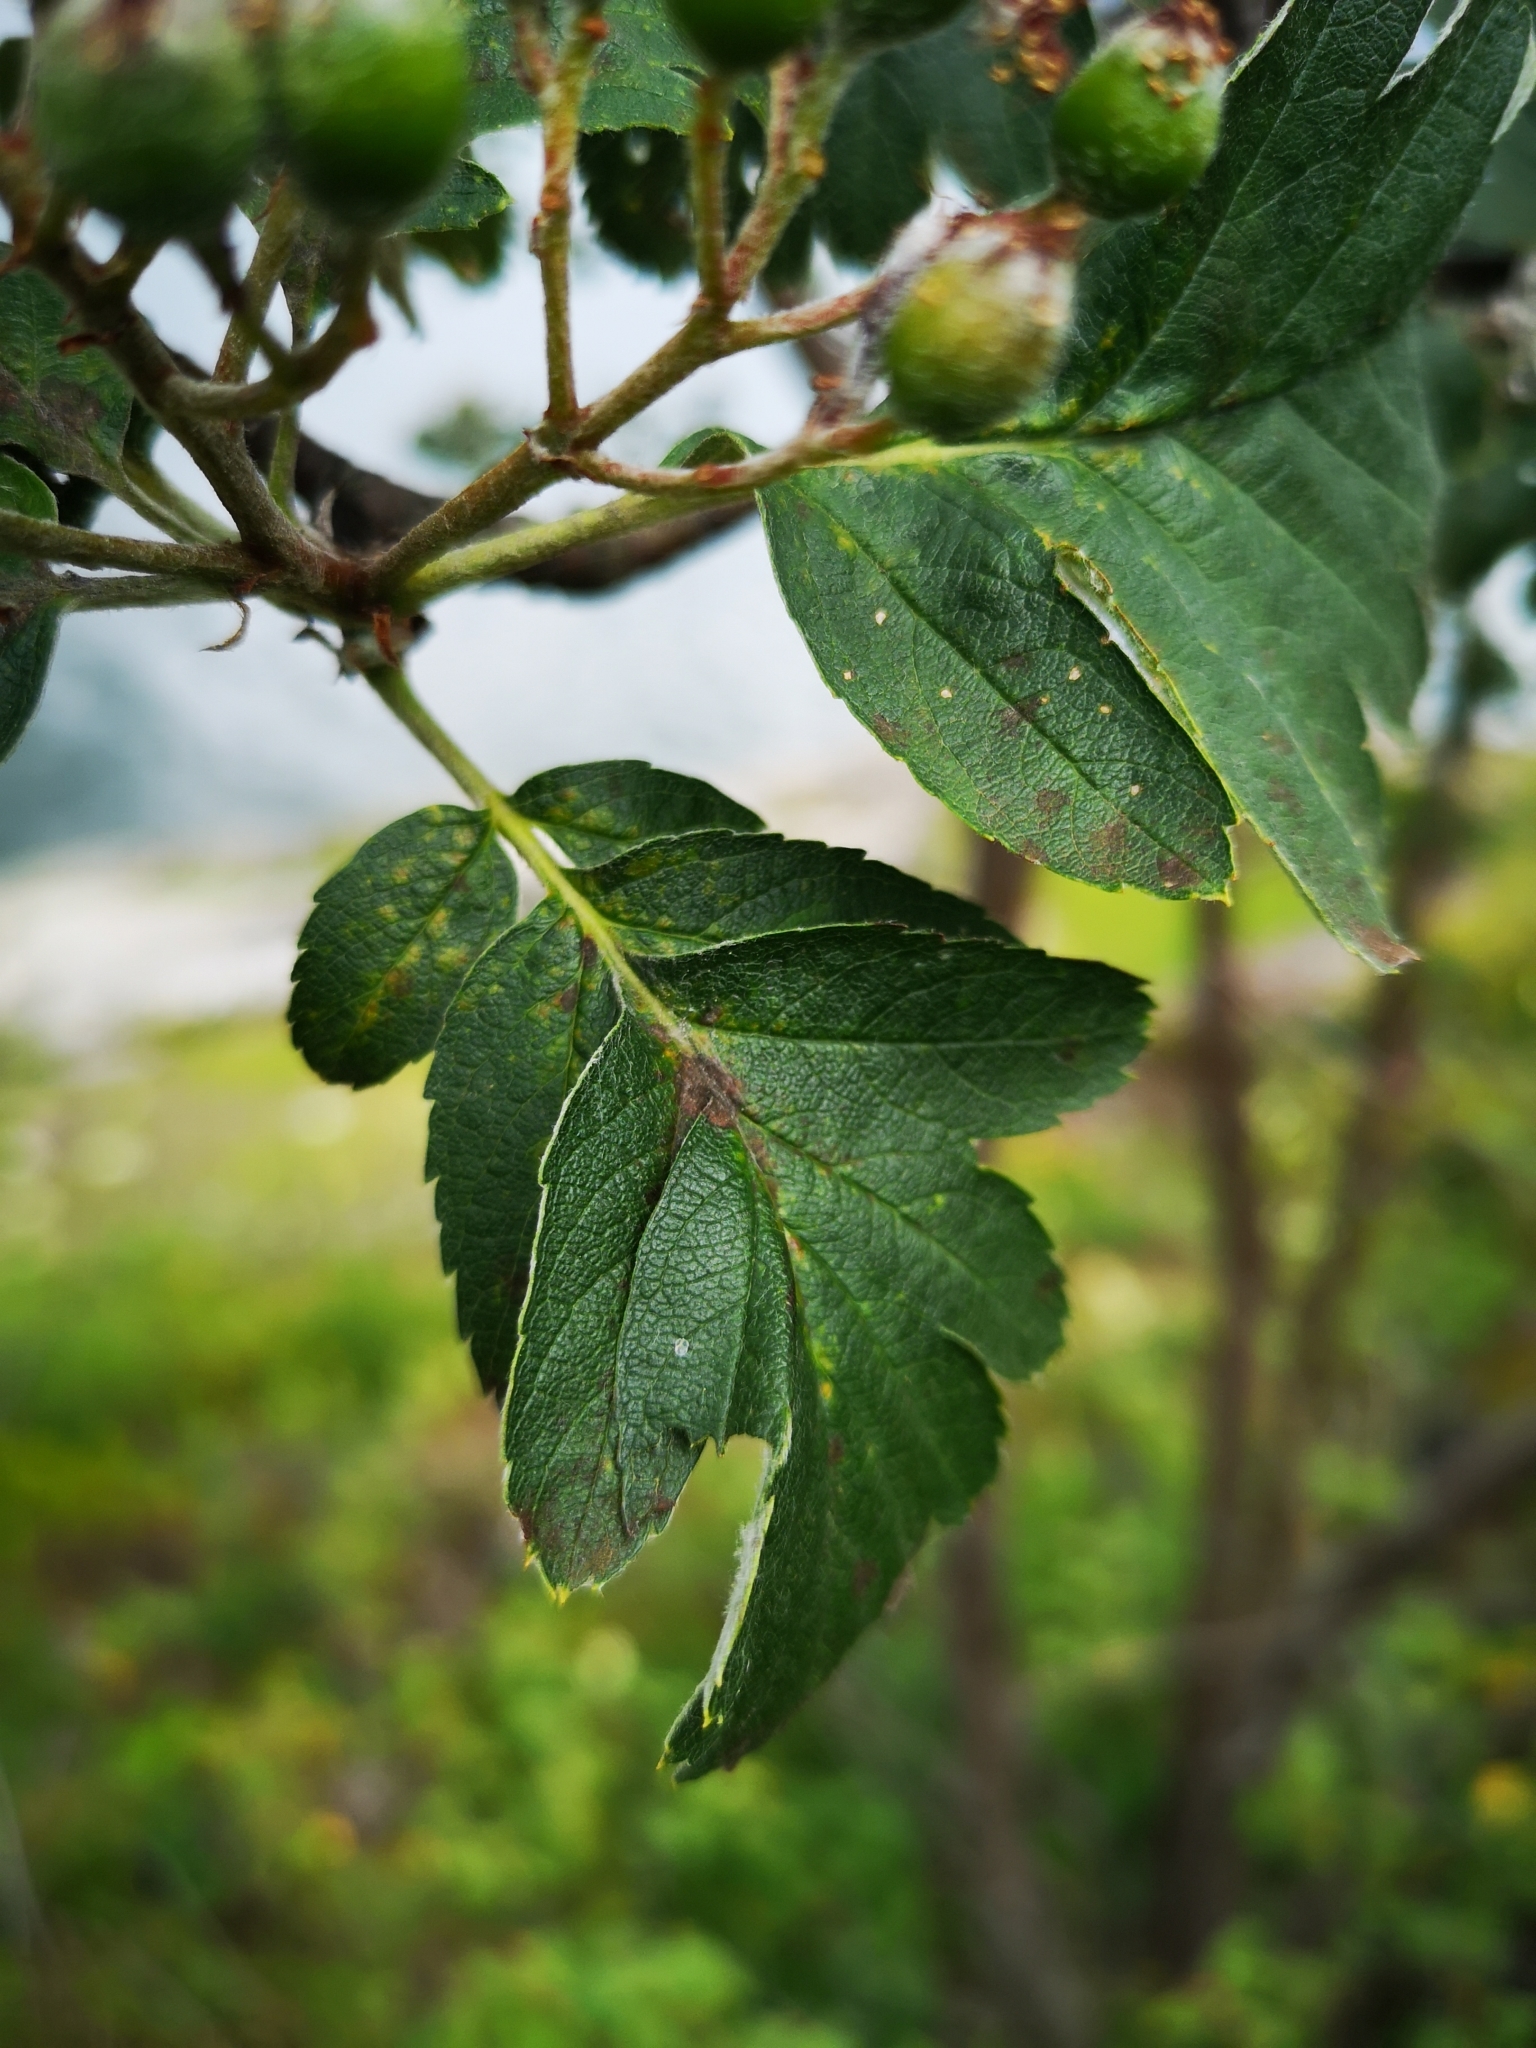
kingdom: Plantae
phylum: Tracheophyta
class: Magnoliopsida
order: Rosales
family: Rosaceae
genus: Hedlundia
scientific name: Hedlundia hybrida
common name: Swedish service-tree
